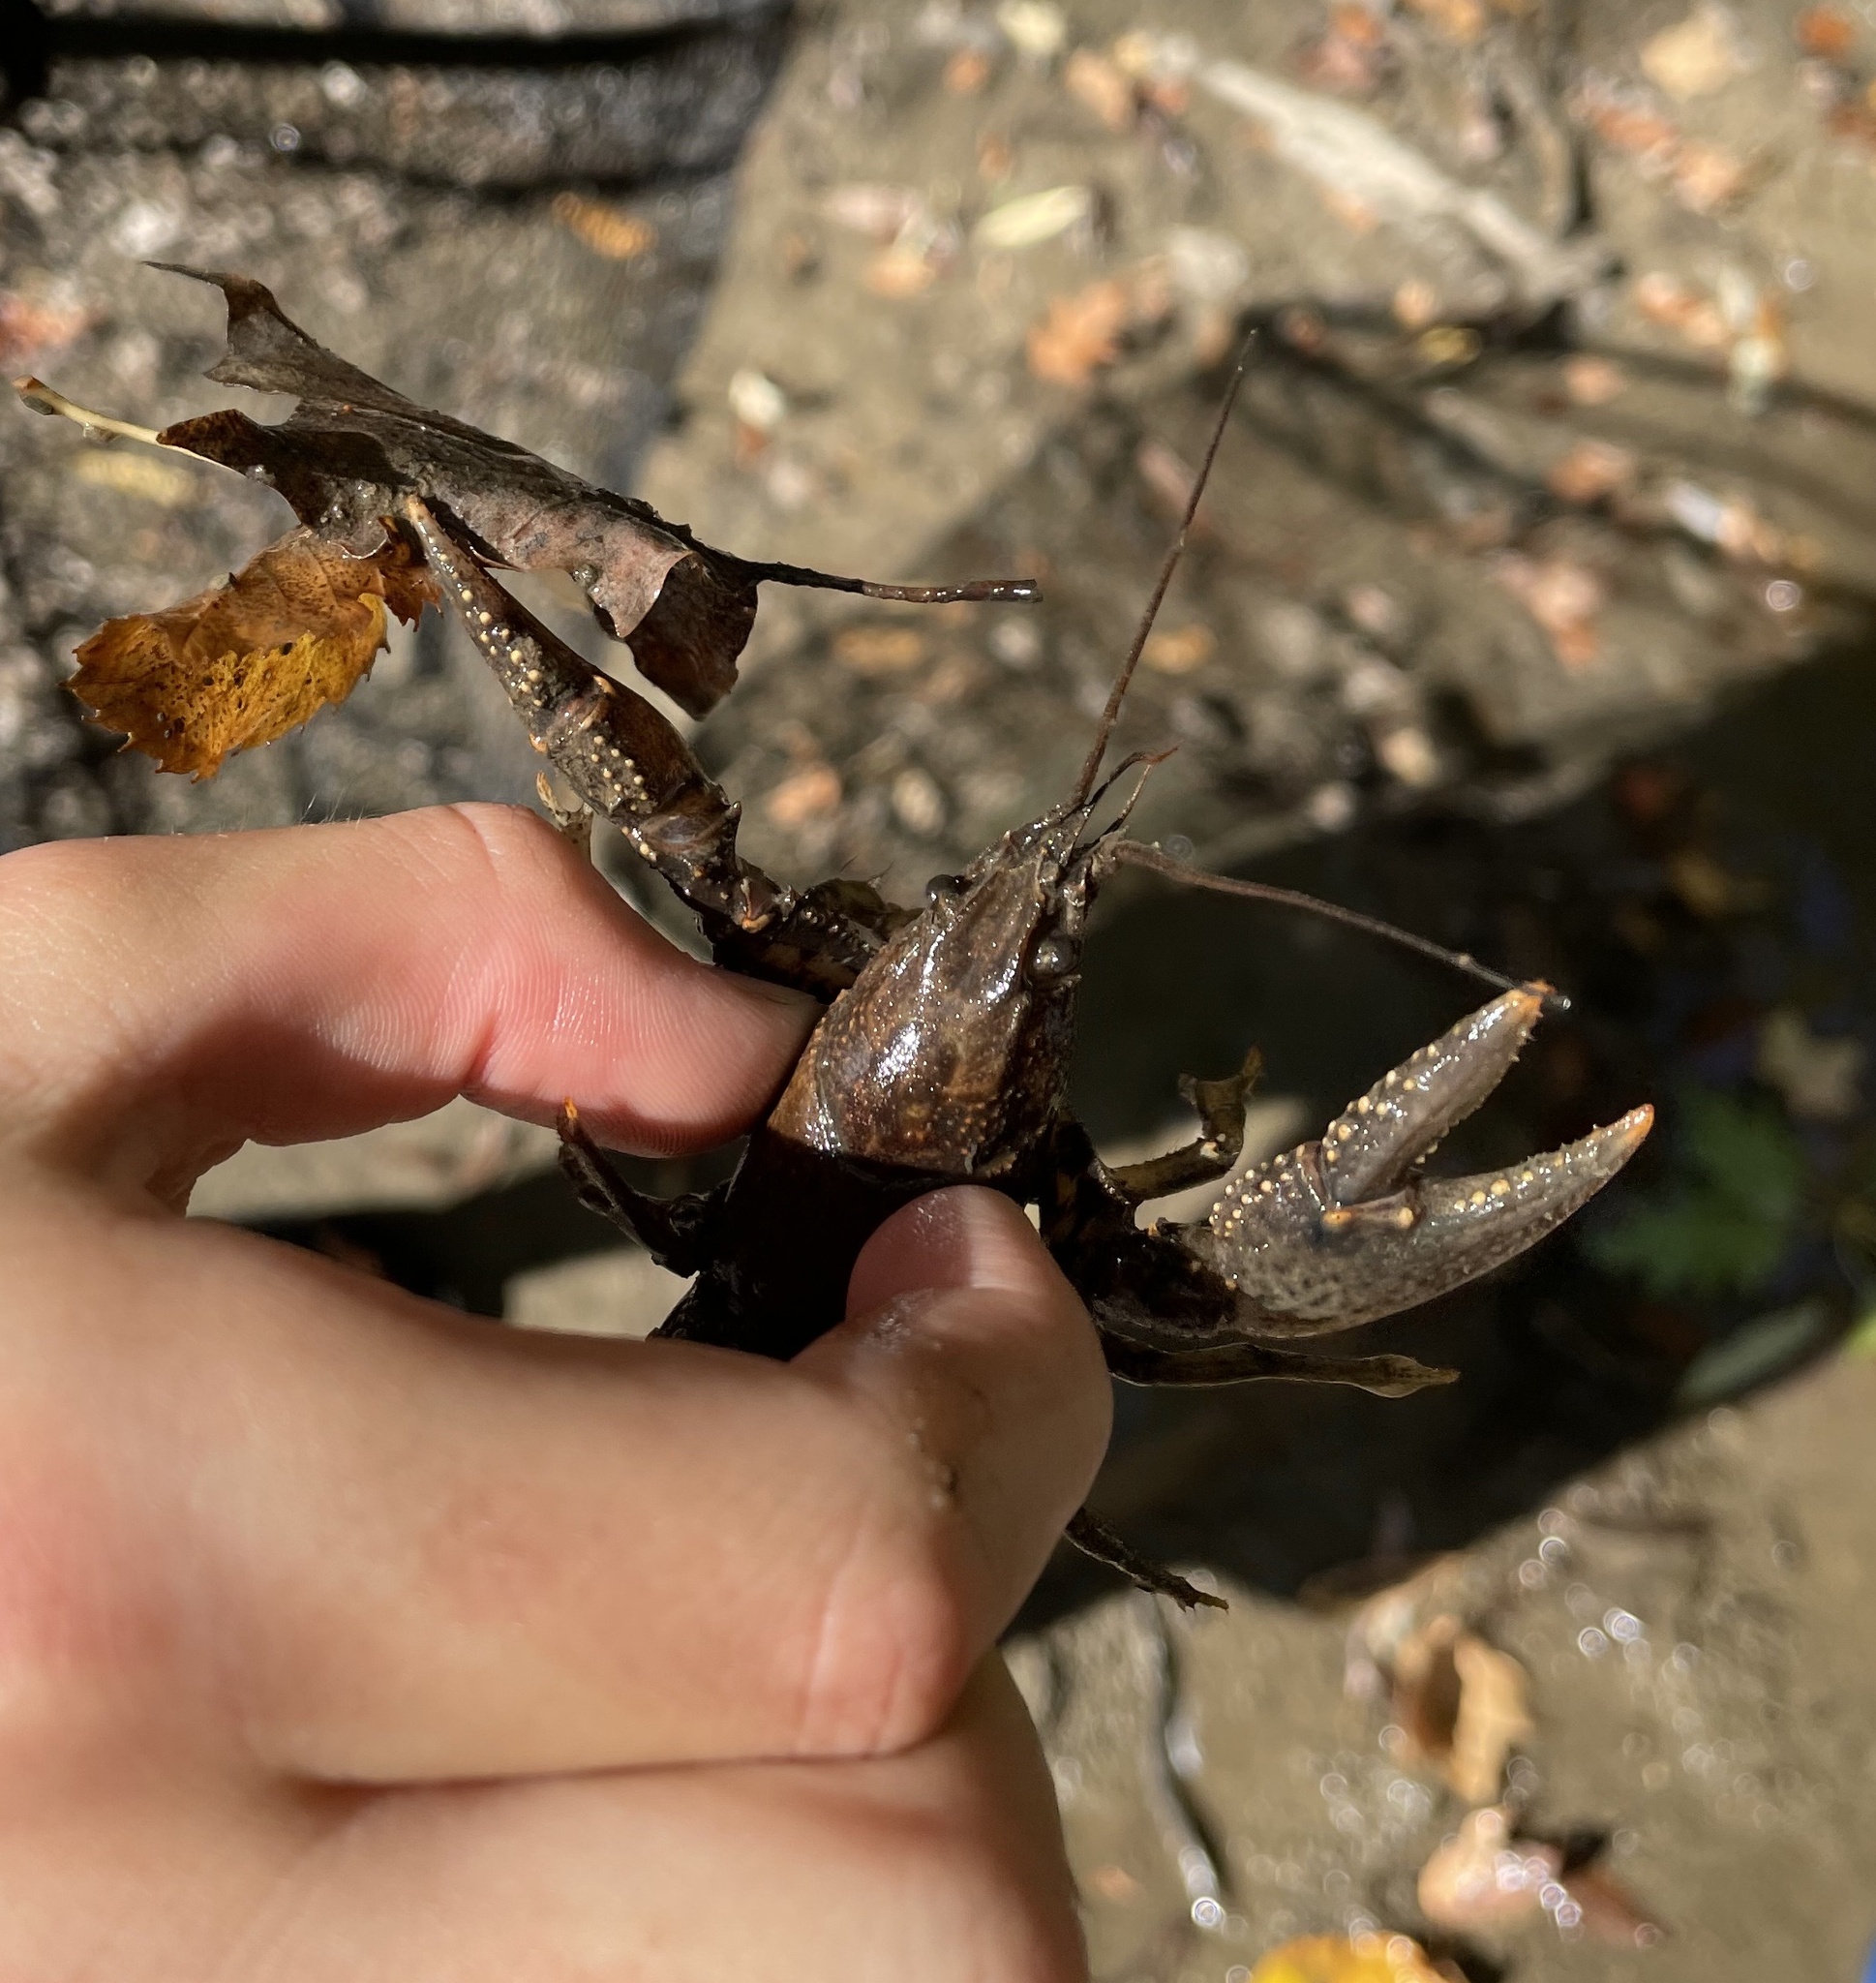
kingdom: Animalia
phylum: Arthropoda
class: Malacostraca
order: Decapoda
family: Cambaridae
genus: Faxonius
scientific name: Faxonius virilis
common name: Virile crayfish
